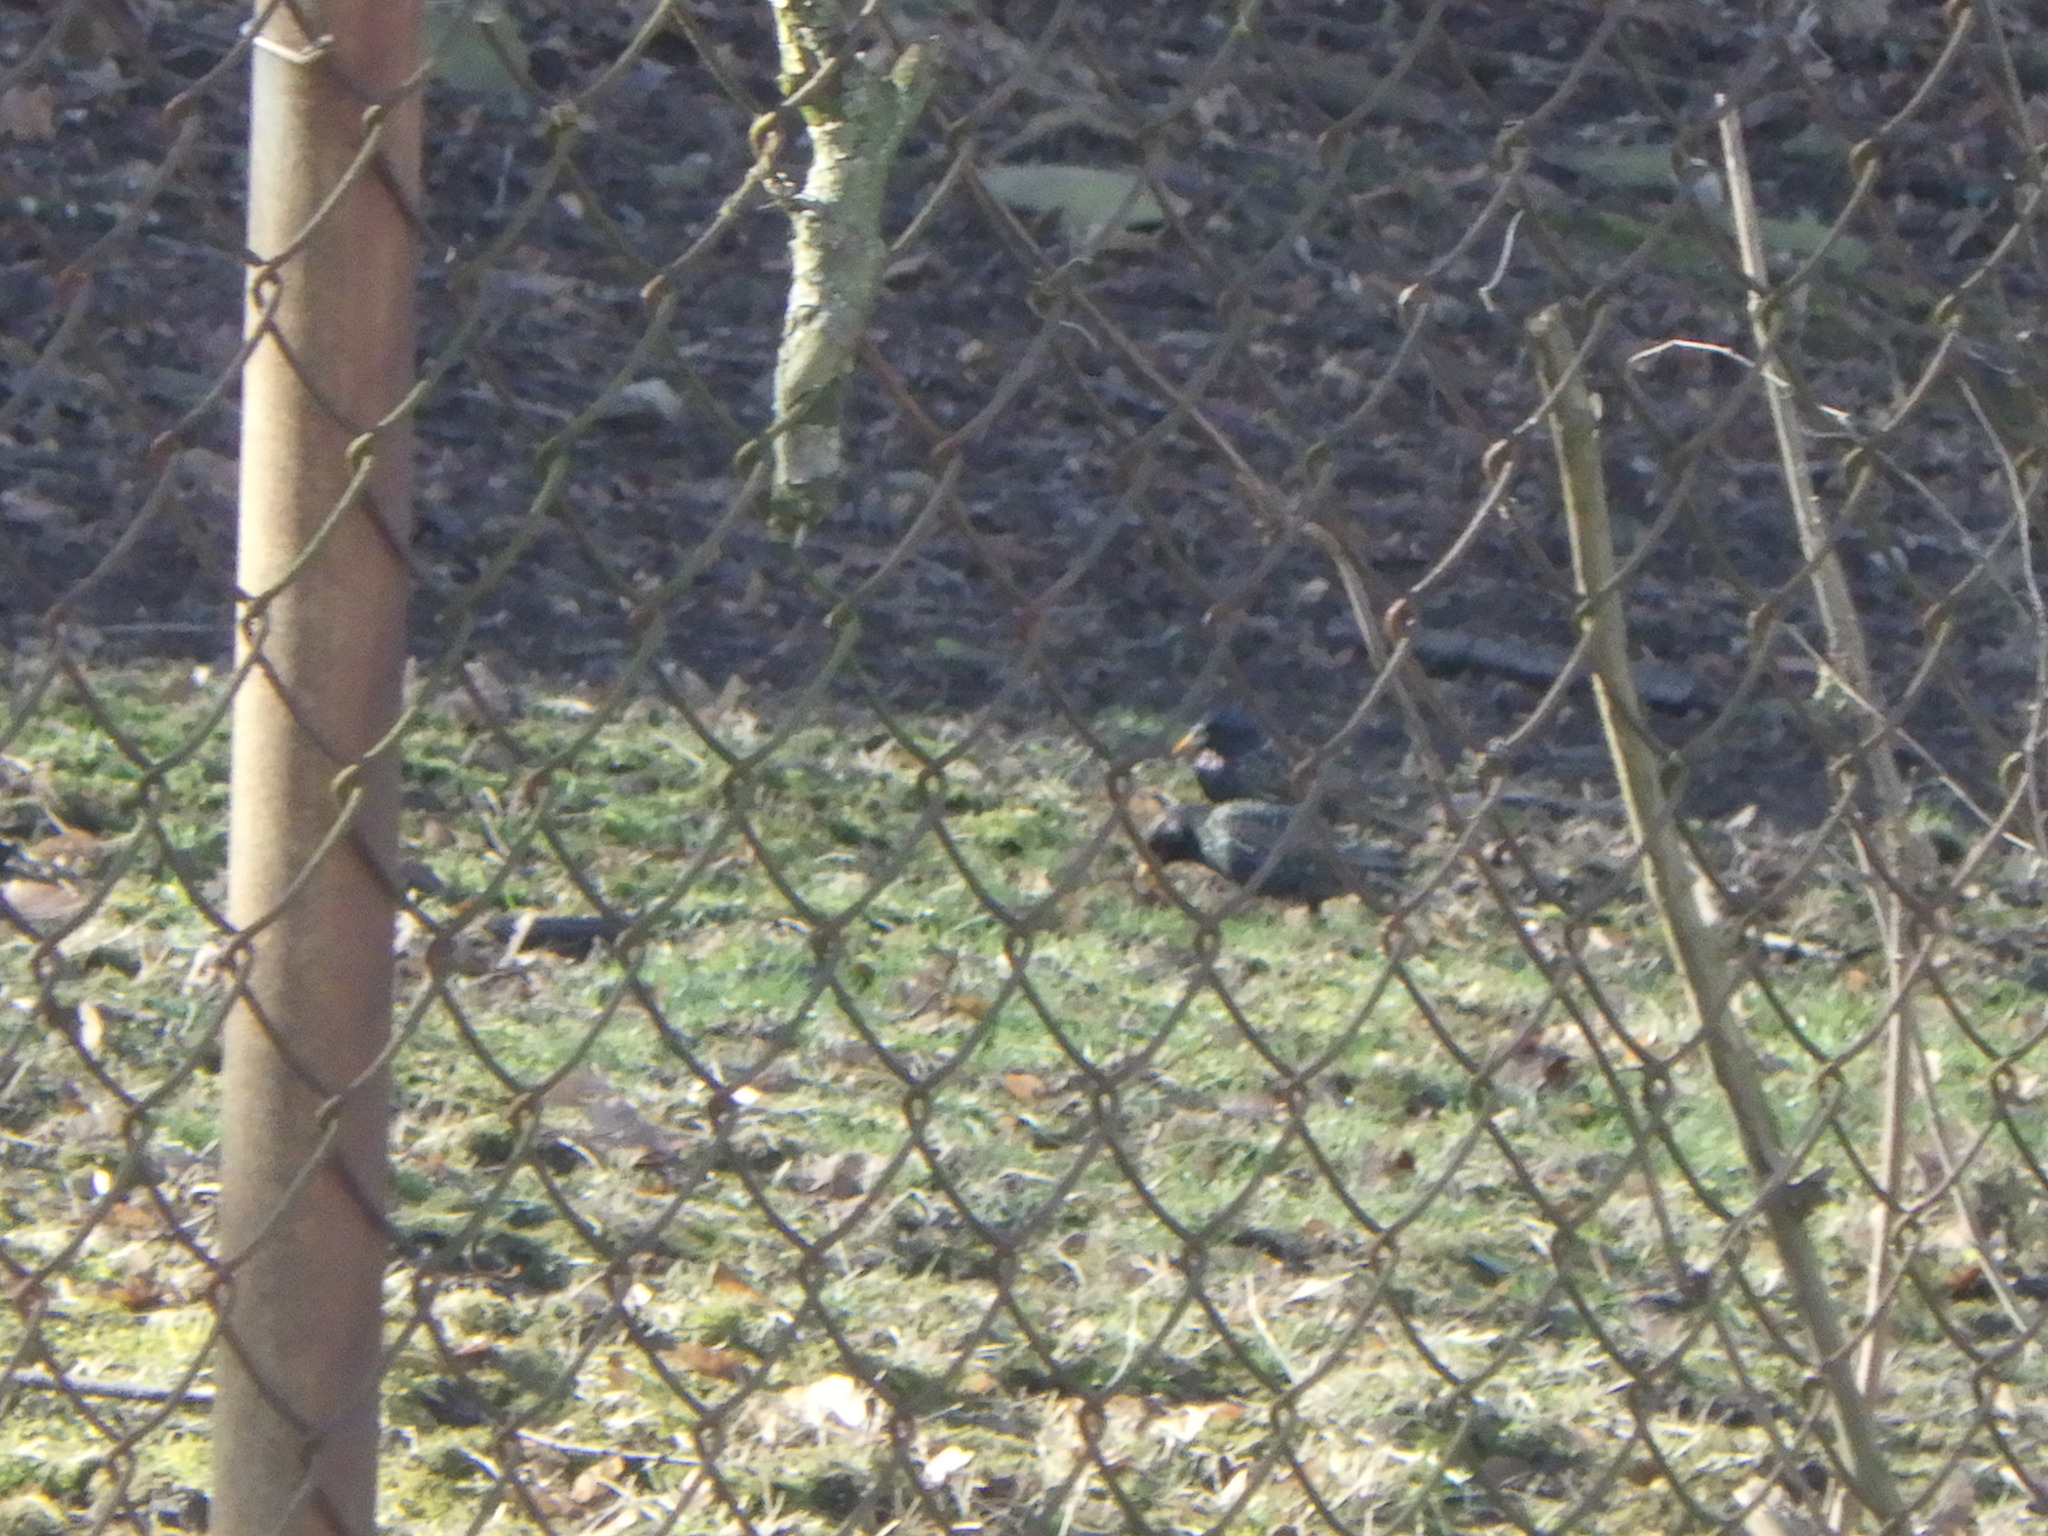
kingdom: Animalia
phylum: Chordata
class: Aves
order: Passeriformes
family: Sturnidae
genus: Sturnus
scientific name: Sturnus vulgaris
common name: Common starling
